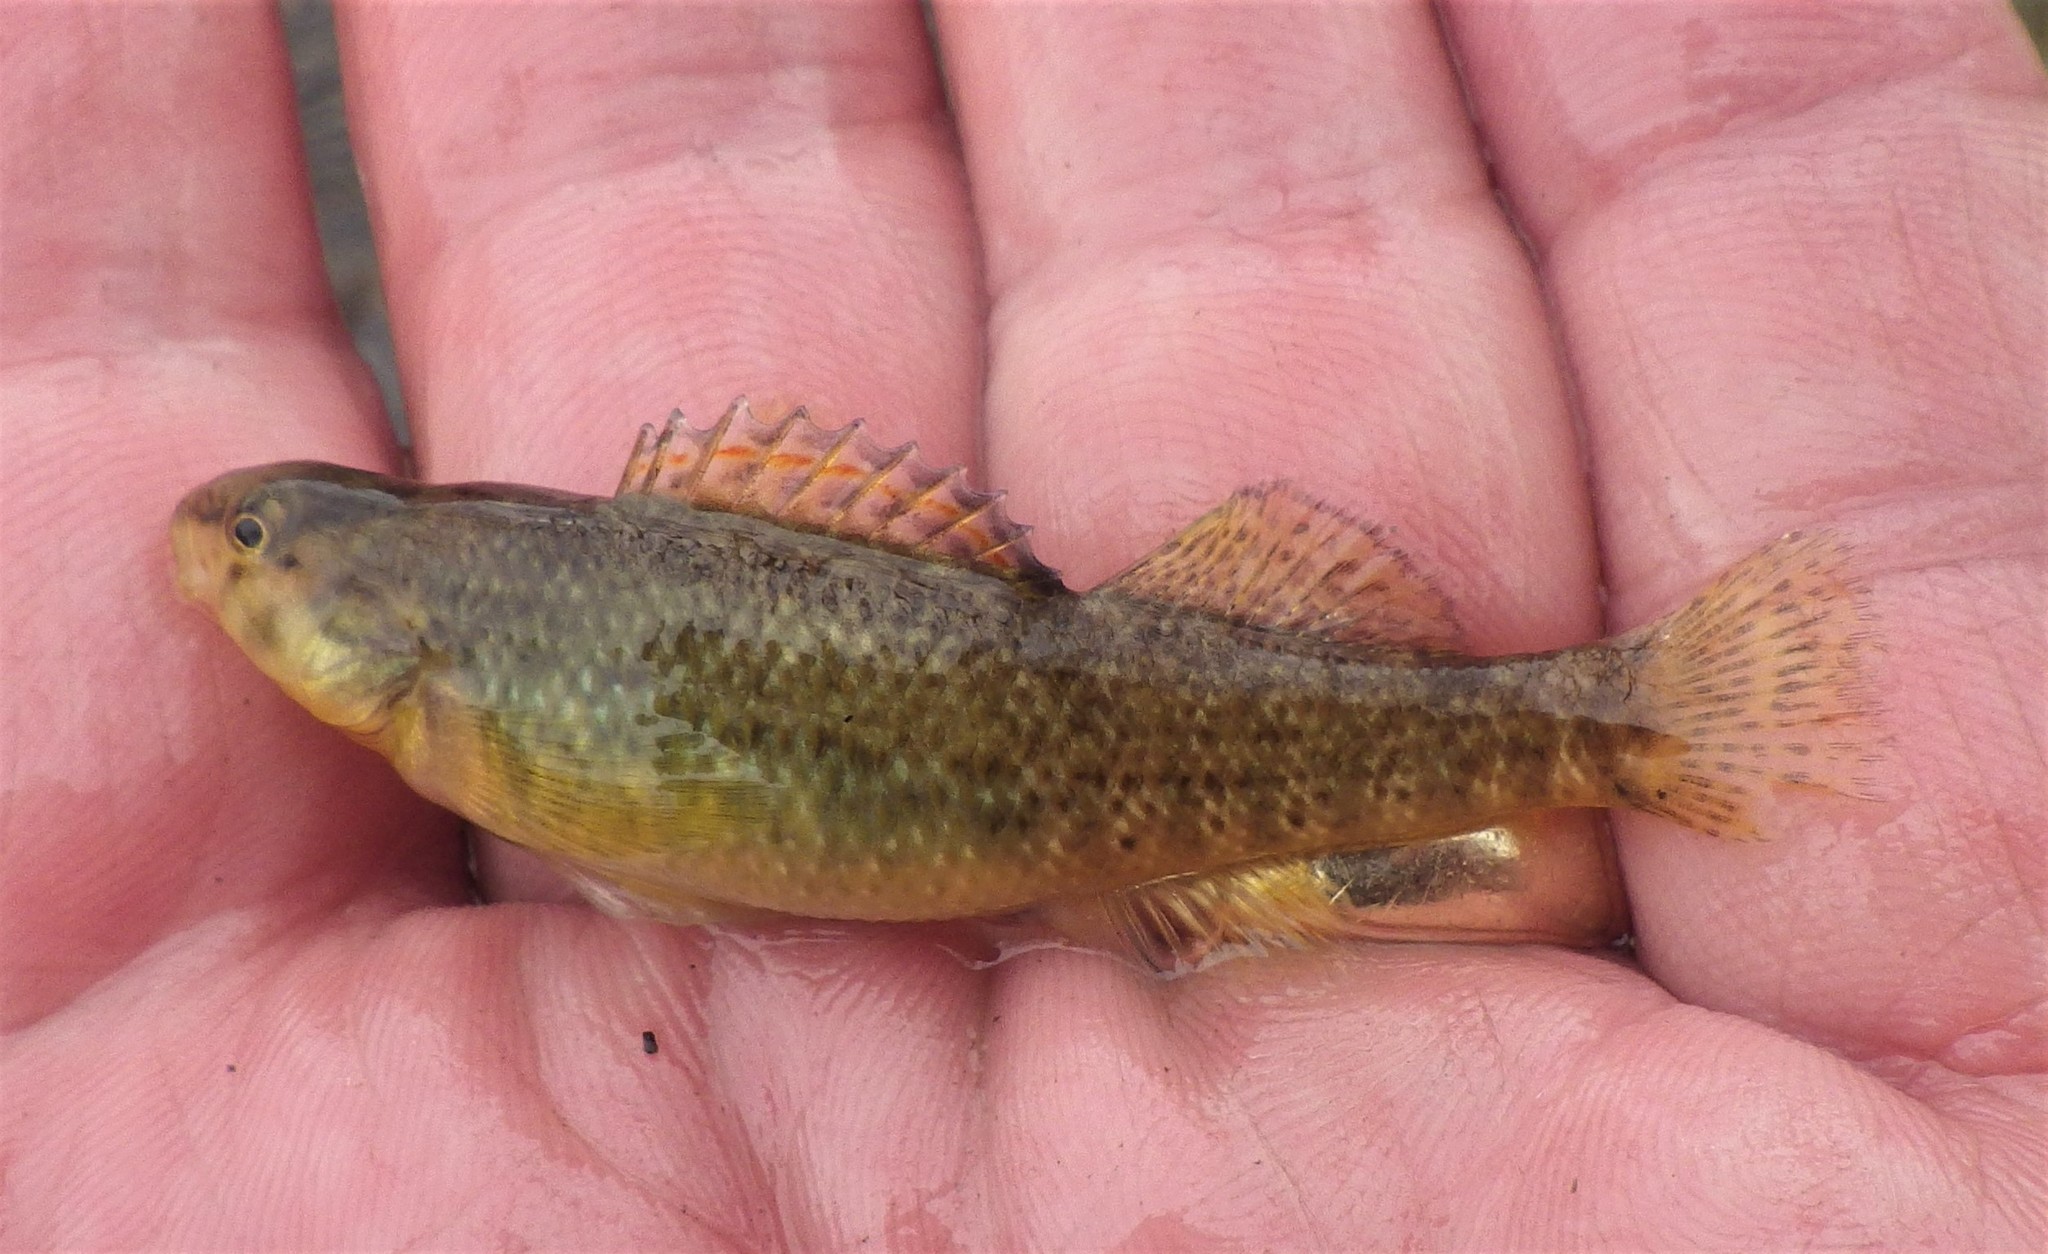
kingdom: Animalia
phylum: Chordata
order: Perciformes
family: Percidae
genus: Etheostoma
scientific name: Etheostoma caeruleum
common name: Rainbow darter
